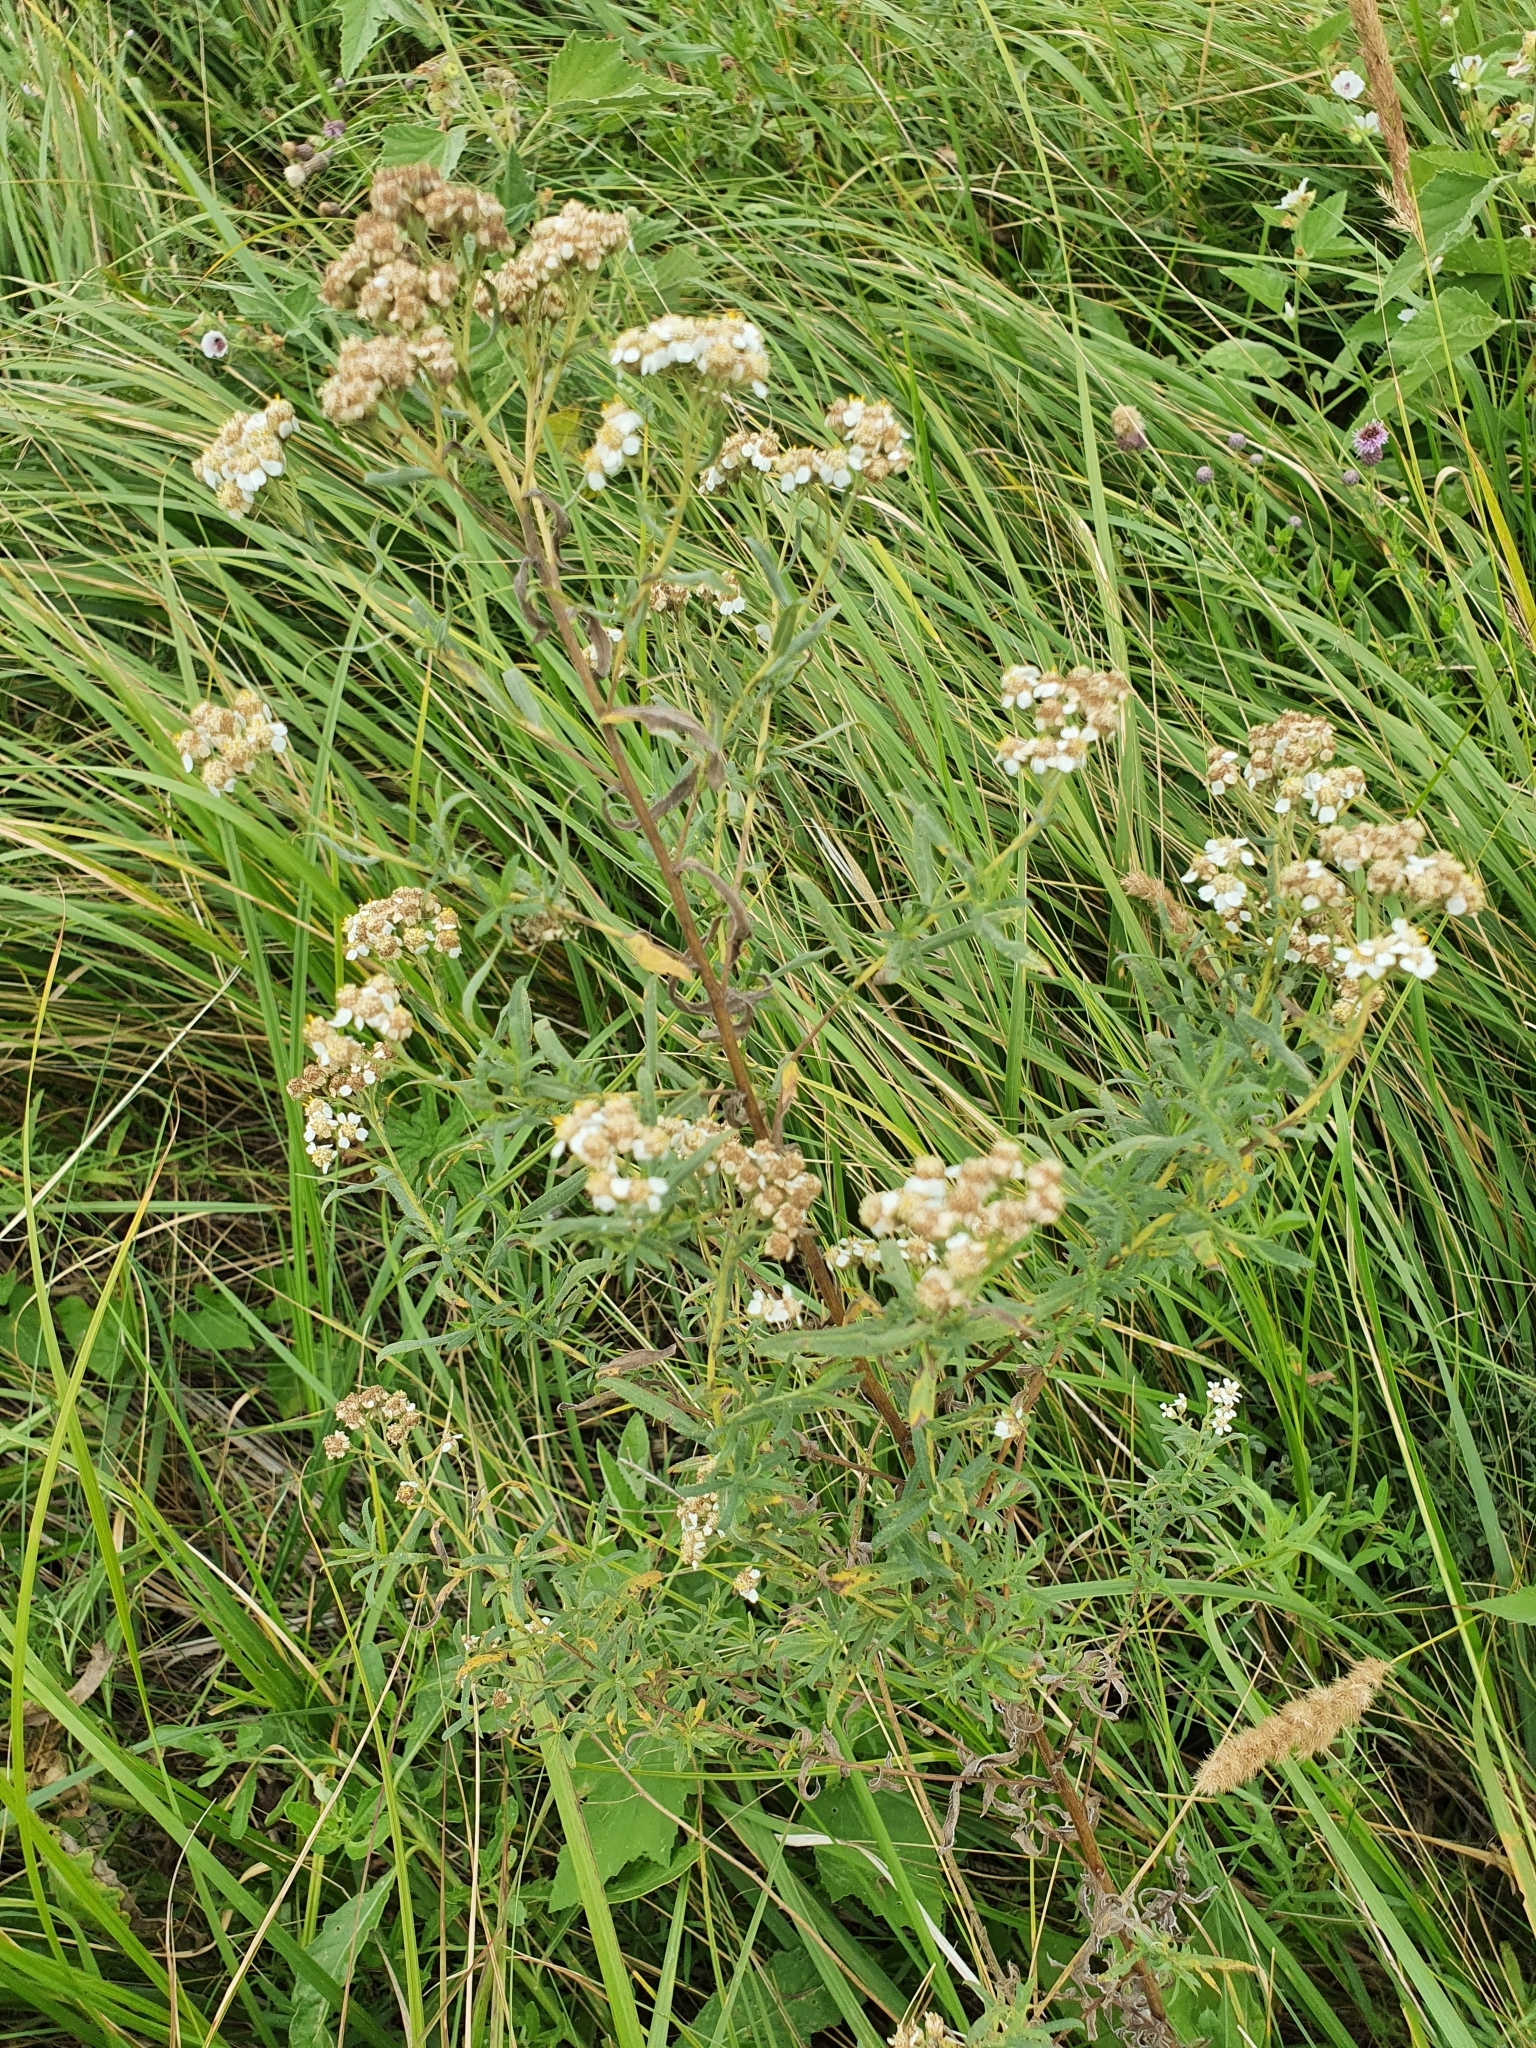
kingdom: Plantae
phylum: Tracheophyta
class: Magnoliopsida
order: Asterales
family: Asteraceae
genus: Achillea
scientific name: Achillea salicifolia
